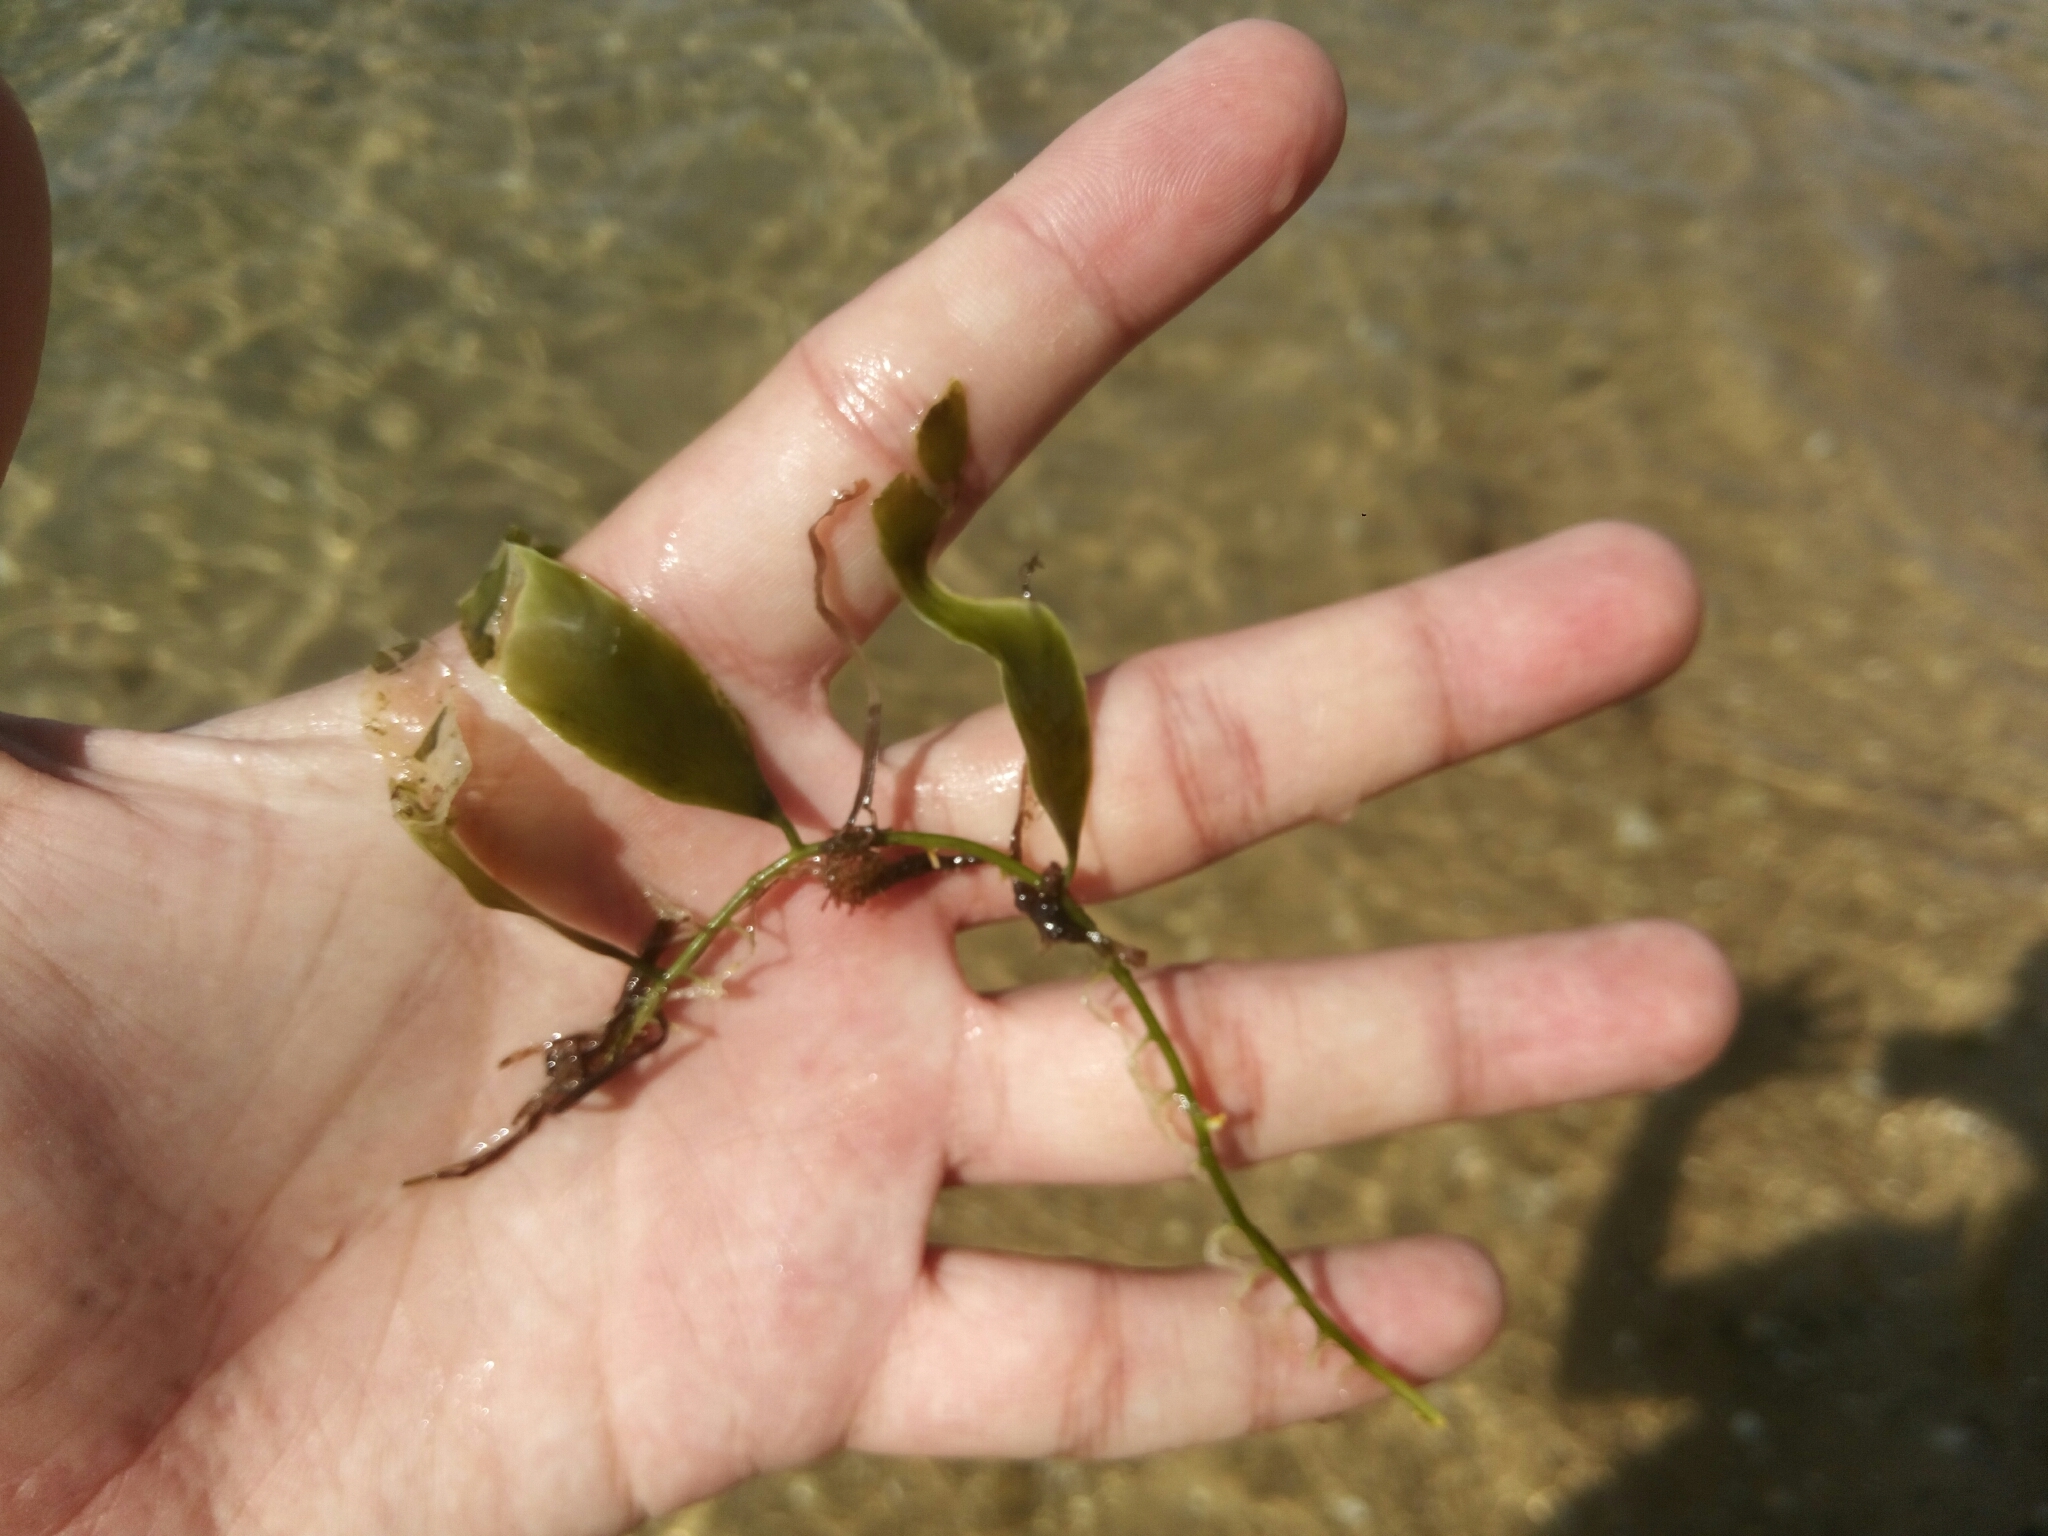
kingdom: Plantae
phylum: Chlorophyta
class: Ulvophyceae
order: Bryopsidales
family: Caulerpaceae
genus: Caulerpa
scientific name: Caulerpa prolifera
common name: Oval-blade algae
